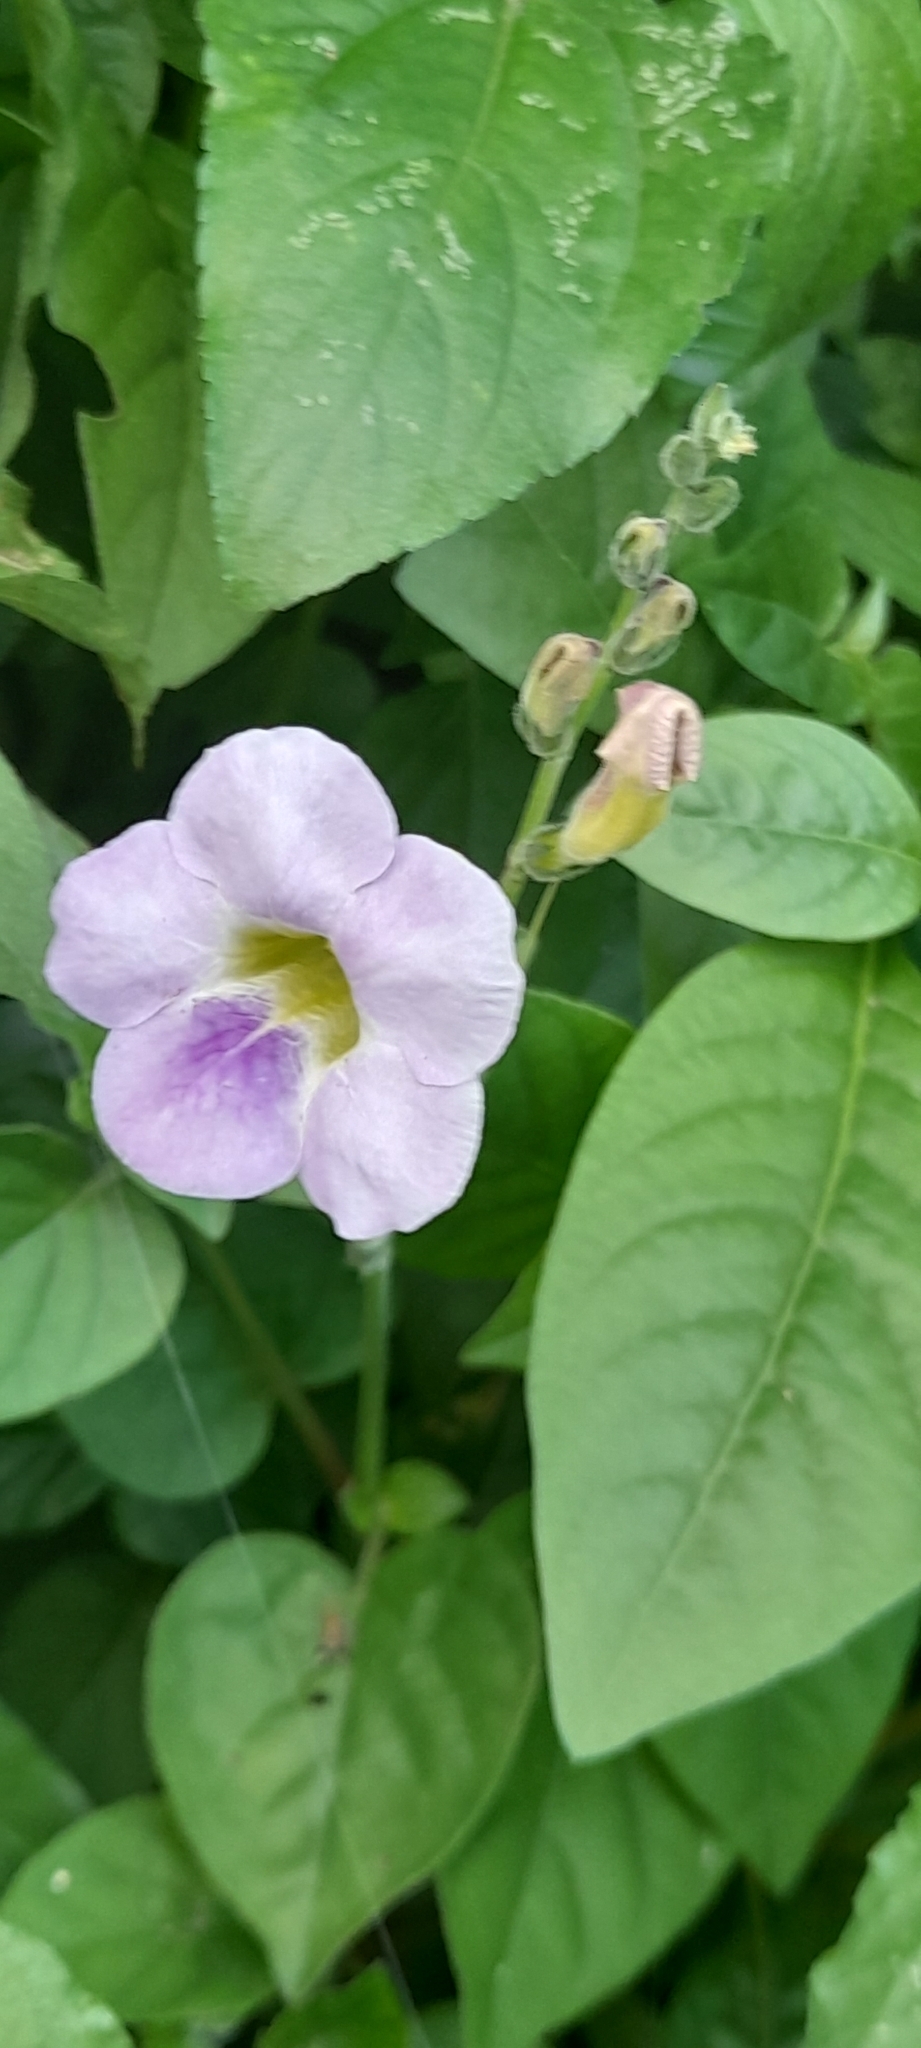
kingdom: Plantae
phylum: Tracheophyta
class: Magnoliopsida
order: Lamiales
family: Acanthaceae
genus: Asystasia
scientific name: Asystasia gangetica
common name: Chinese violet
